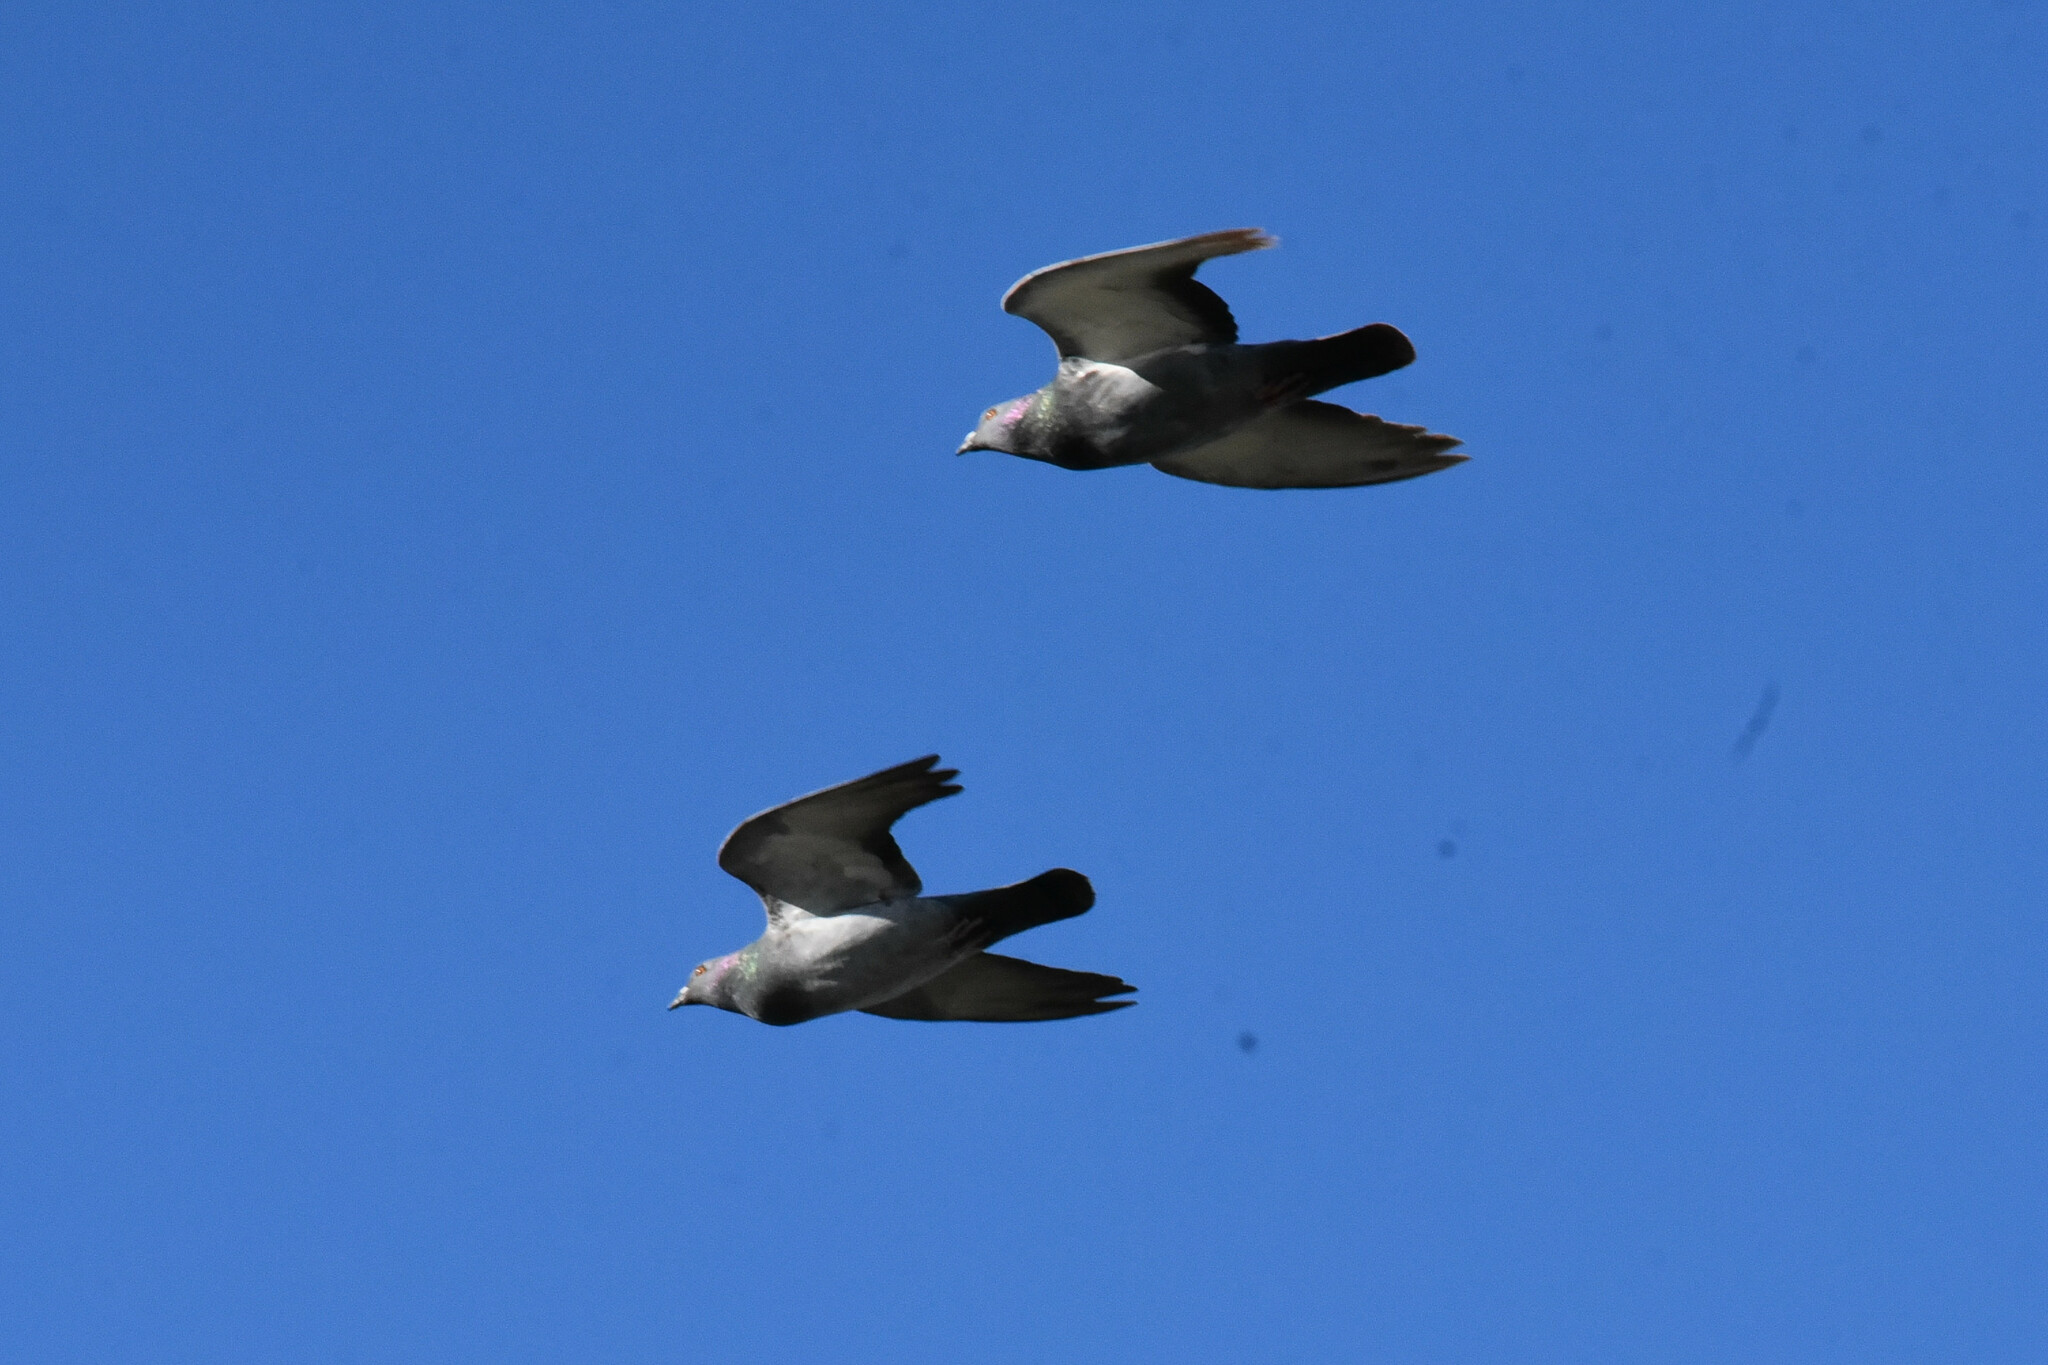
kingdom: Animalia
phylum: Chordata
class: Aves
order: Columbiformes
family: Columbidae
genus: Columba
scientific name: Columba livia
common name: Rock pigeon
